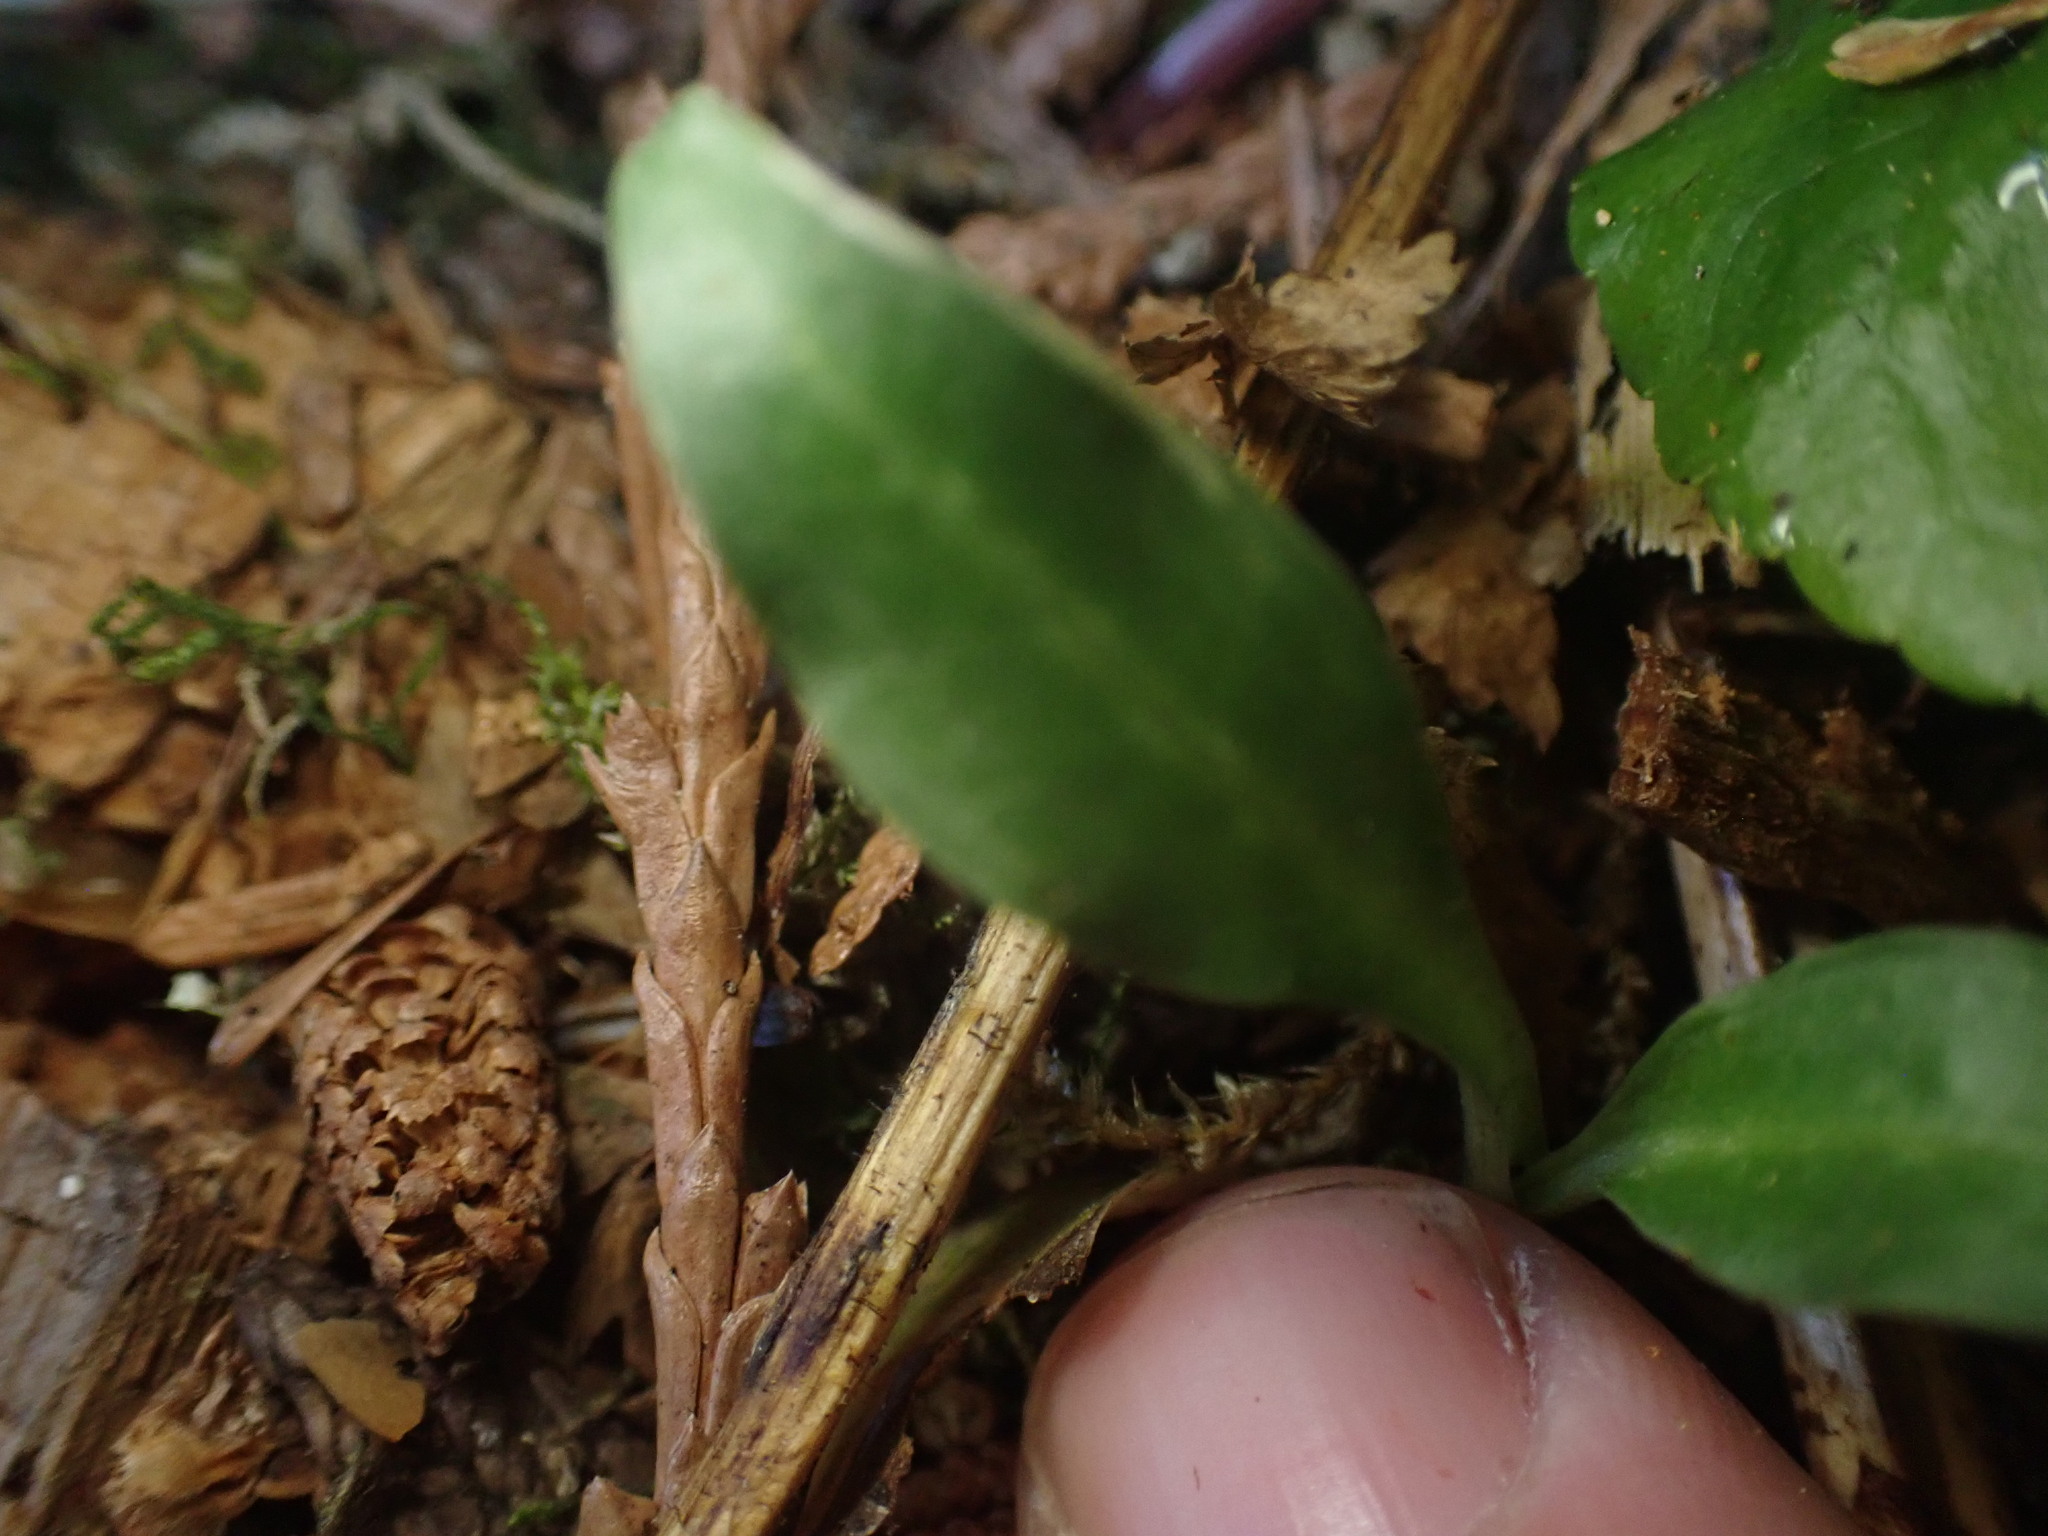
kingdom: Plantae
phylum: Tracheophyta
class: Liliopsida
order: Asparagales
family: Orchidaceae
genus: Goodyera
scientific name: Goodyera oblongifolia
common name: Giant rattlesnake-plantain
